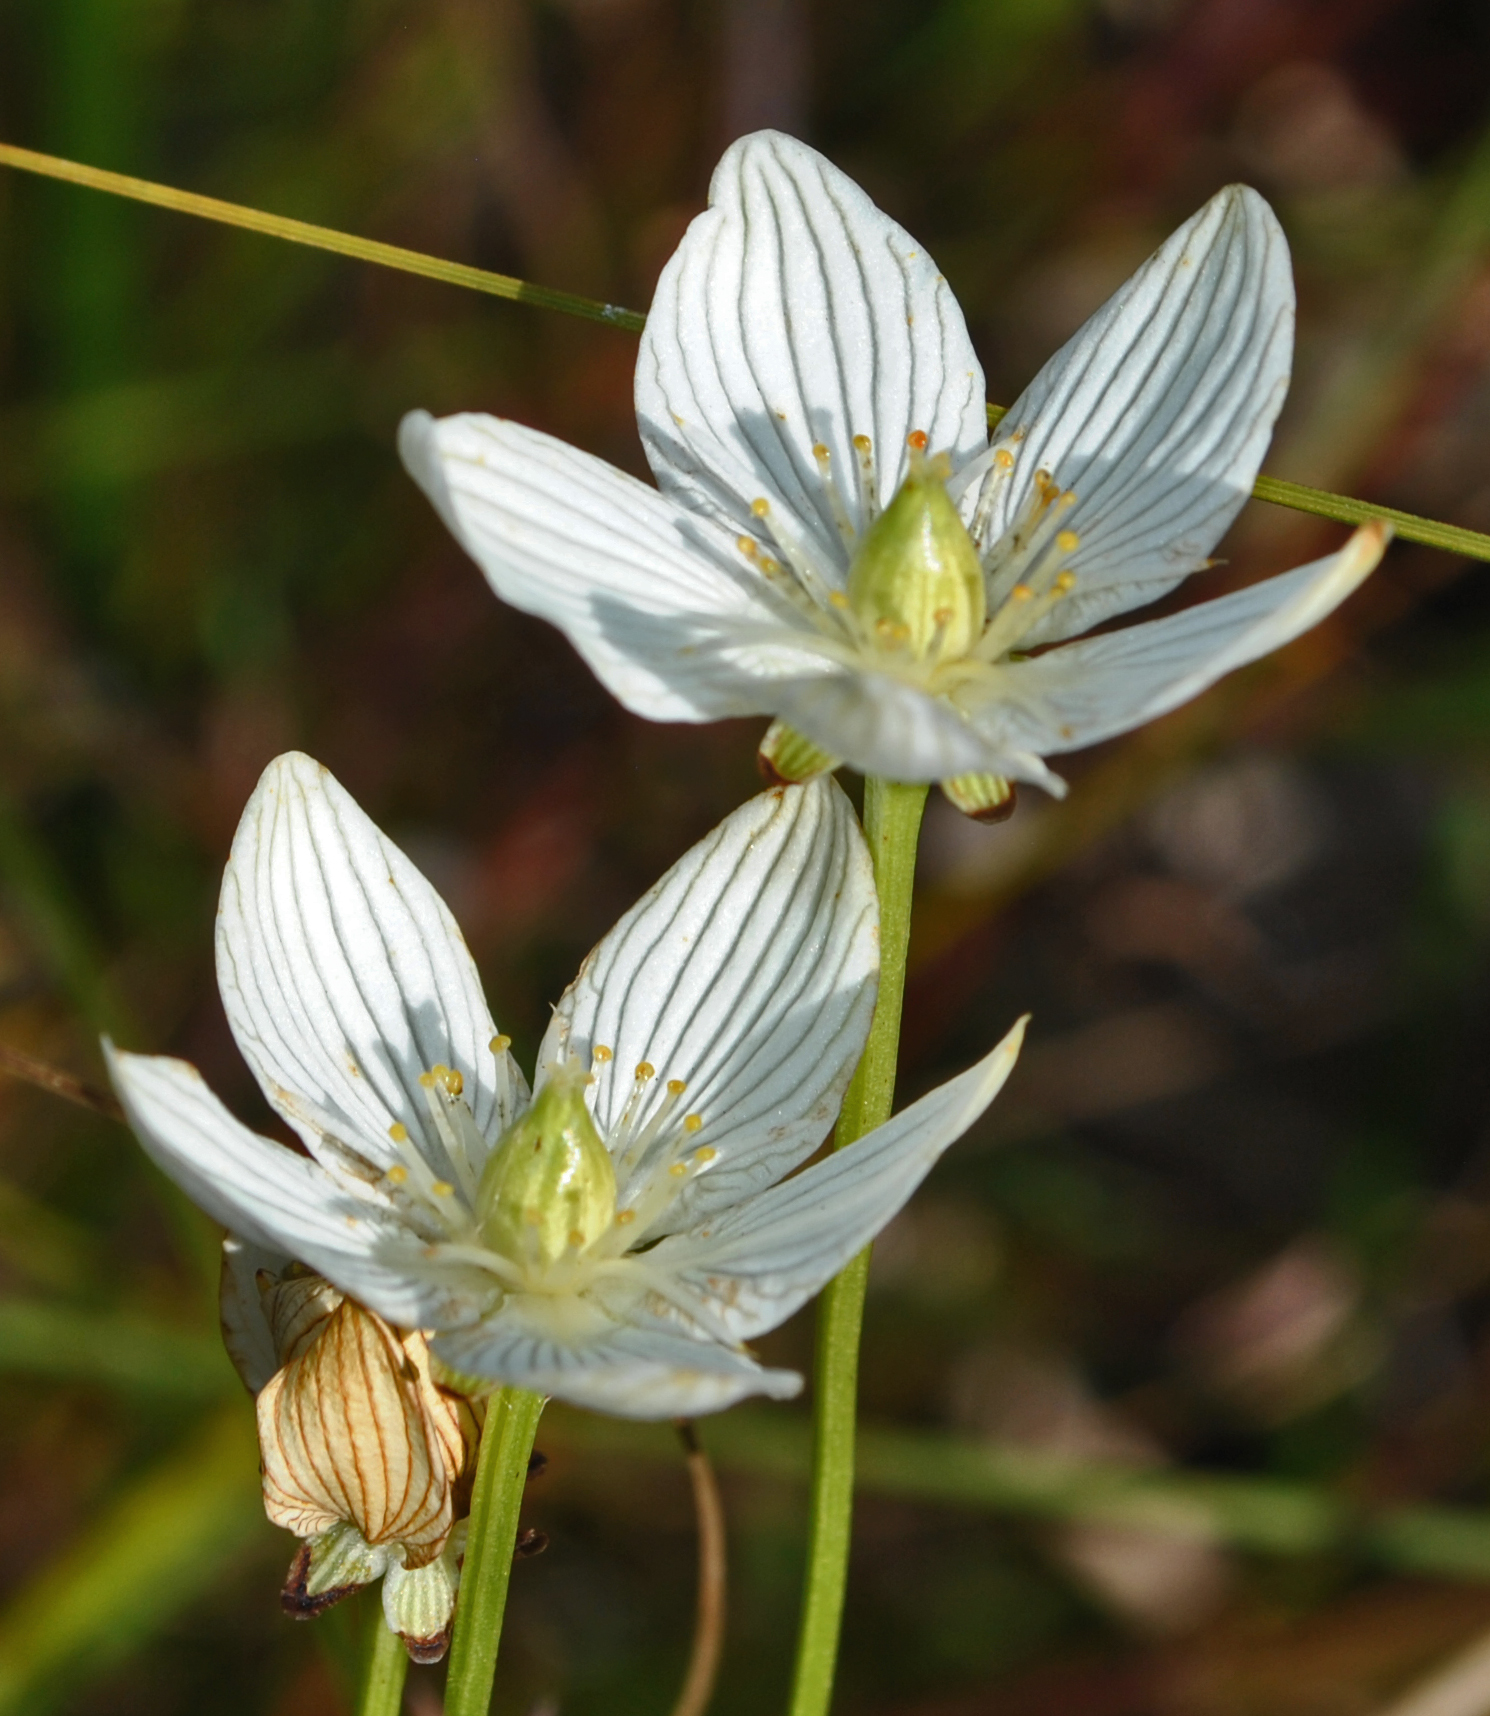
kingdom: Plantae
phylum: Tracheophyta
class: Magnoliopsida
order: Celastrales
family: Parnassiaceae
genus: Parnassia
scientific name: Parnassia glauca
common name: American grass-of-parnassus
